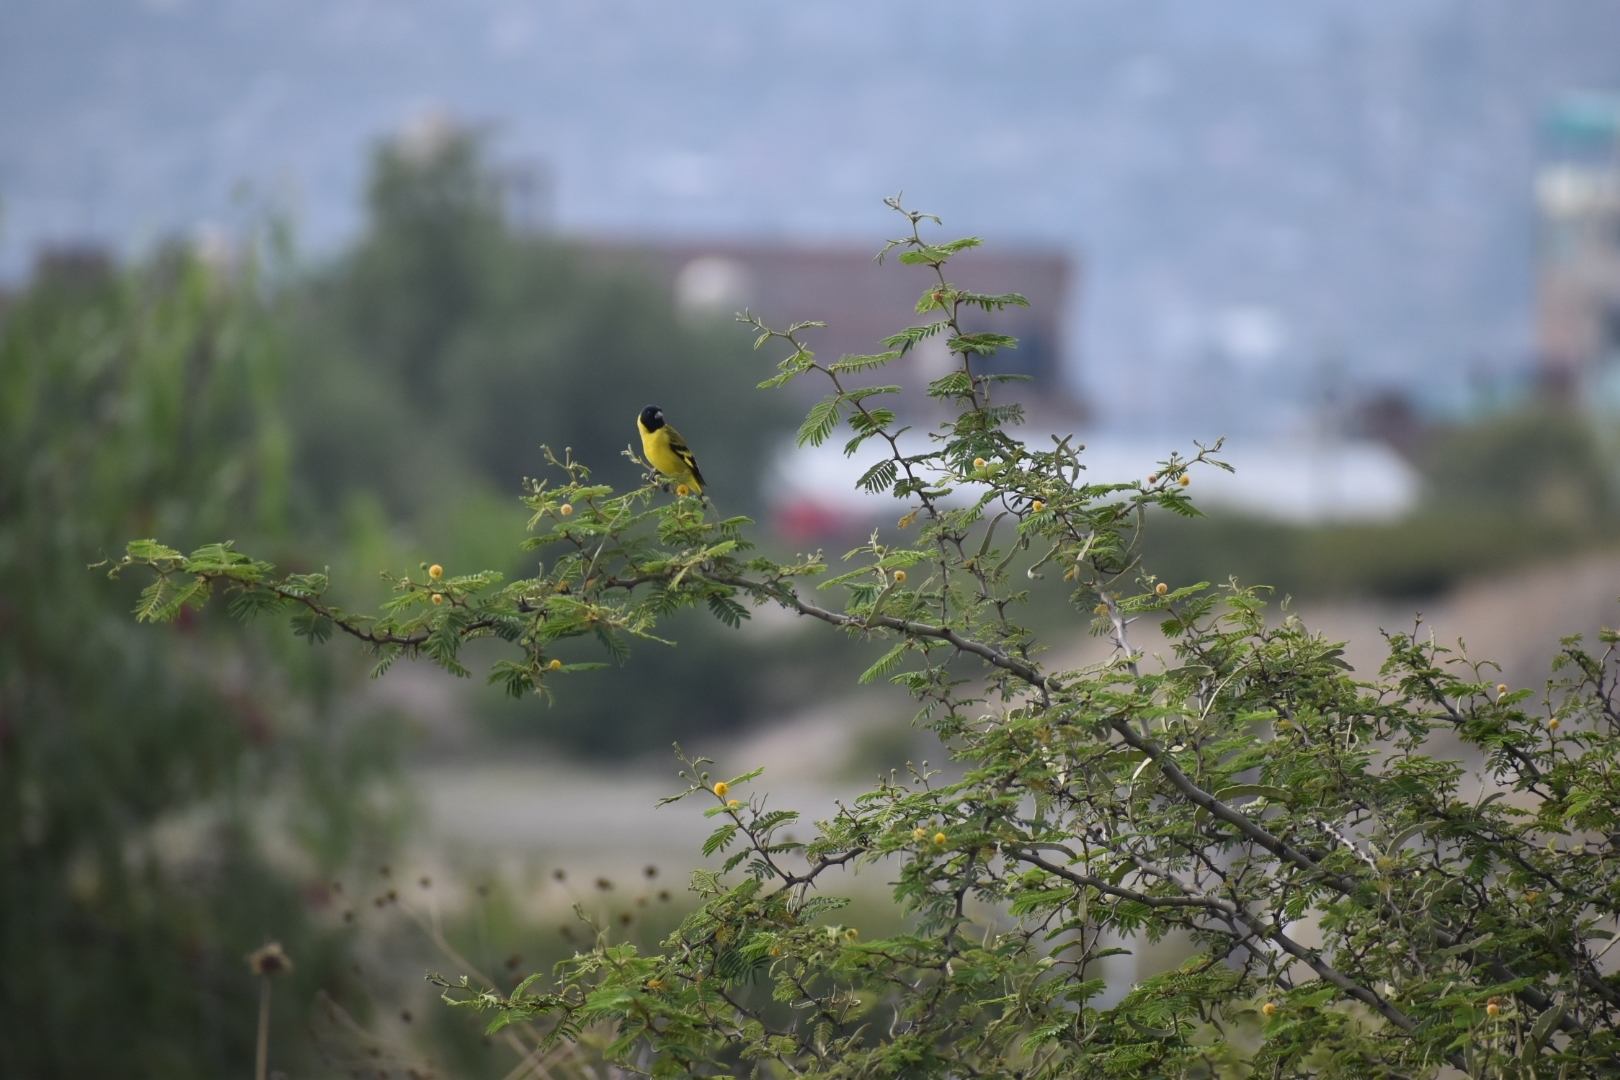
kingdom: Animalia
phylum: Chordata
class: Aves
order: Passeriformes
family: Fringillidae
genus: Spinus
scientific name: Spinus magellanicus
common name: Hooded siskin
